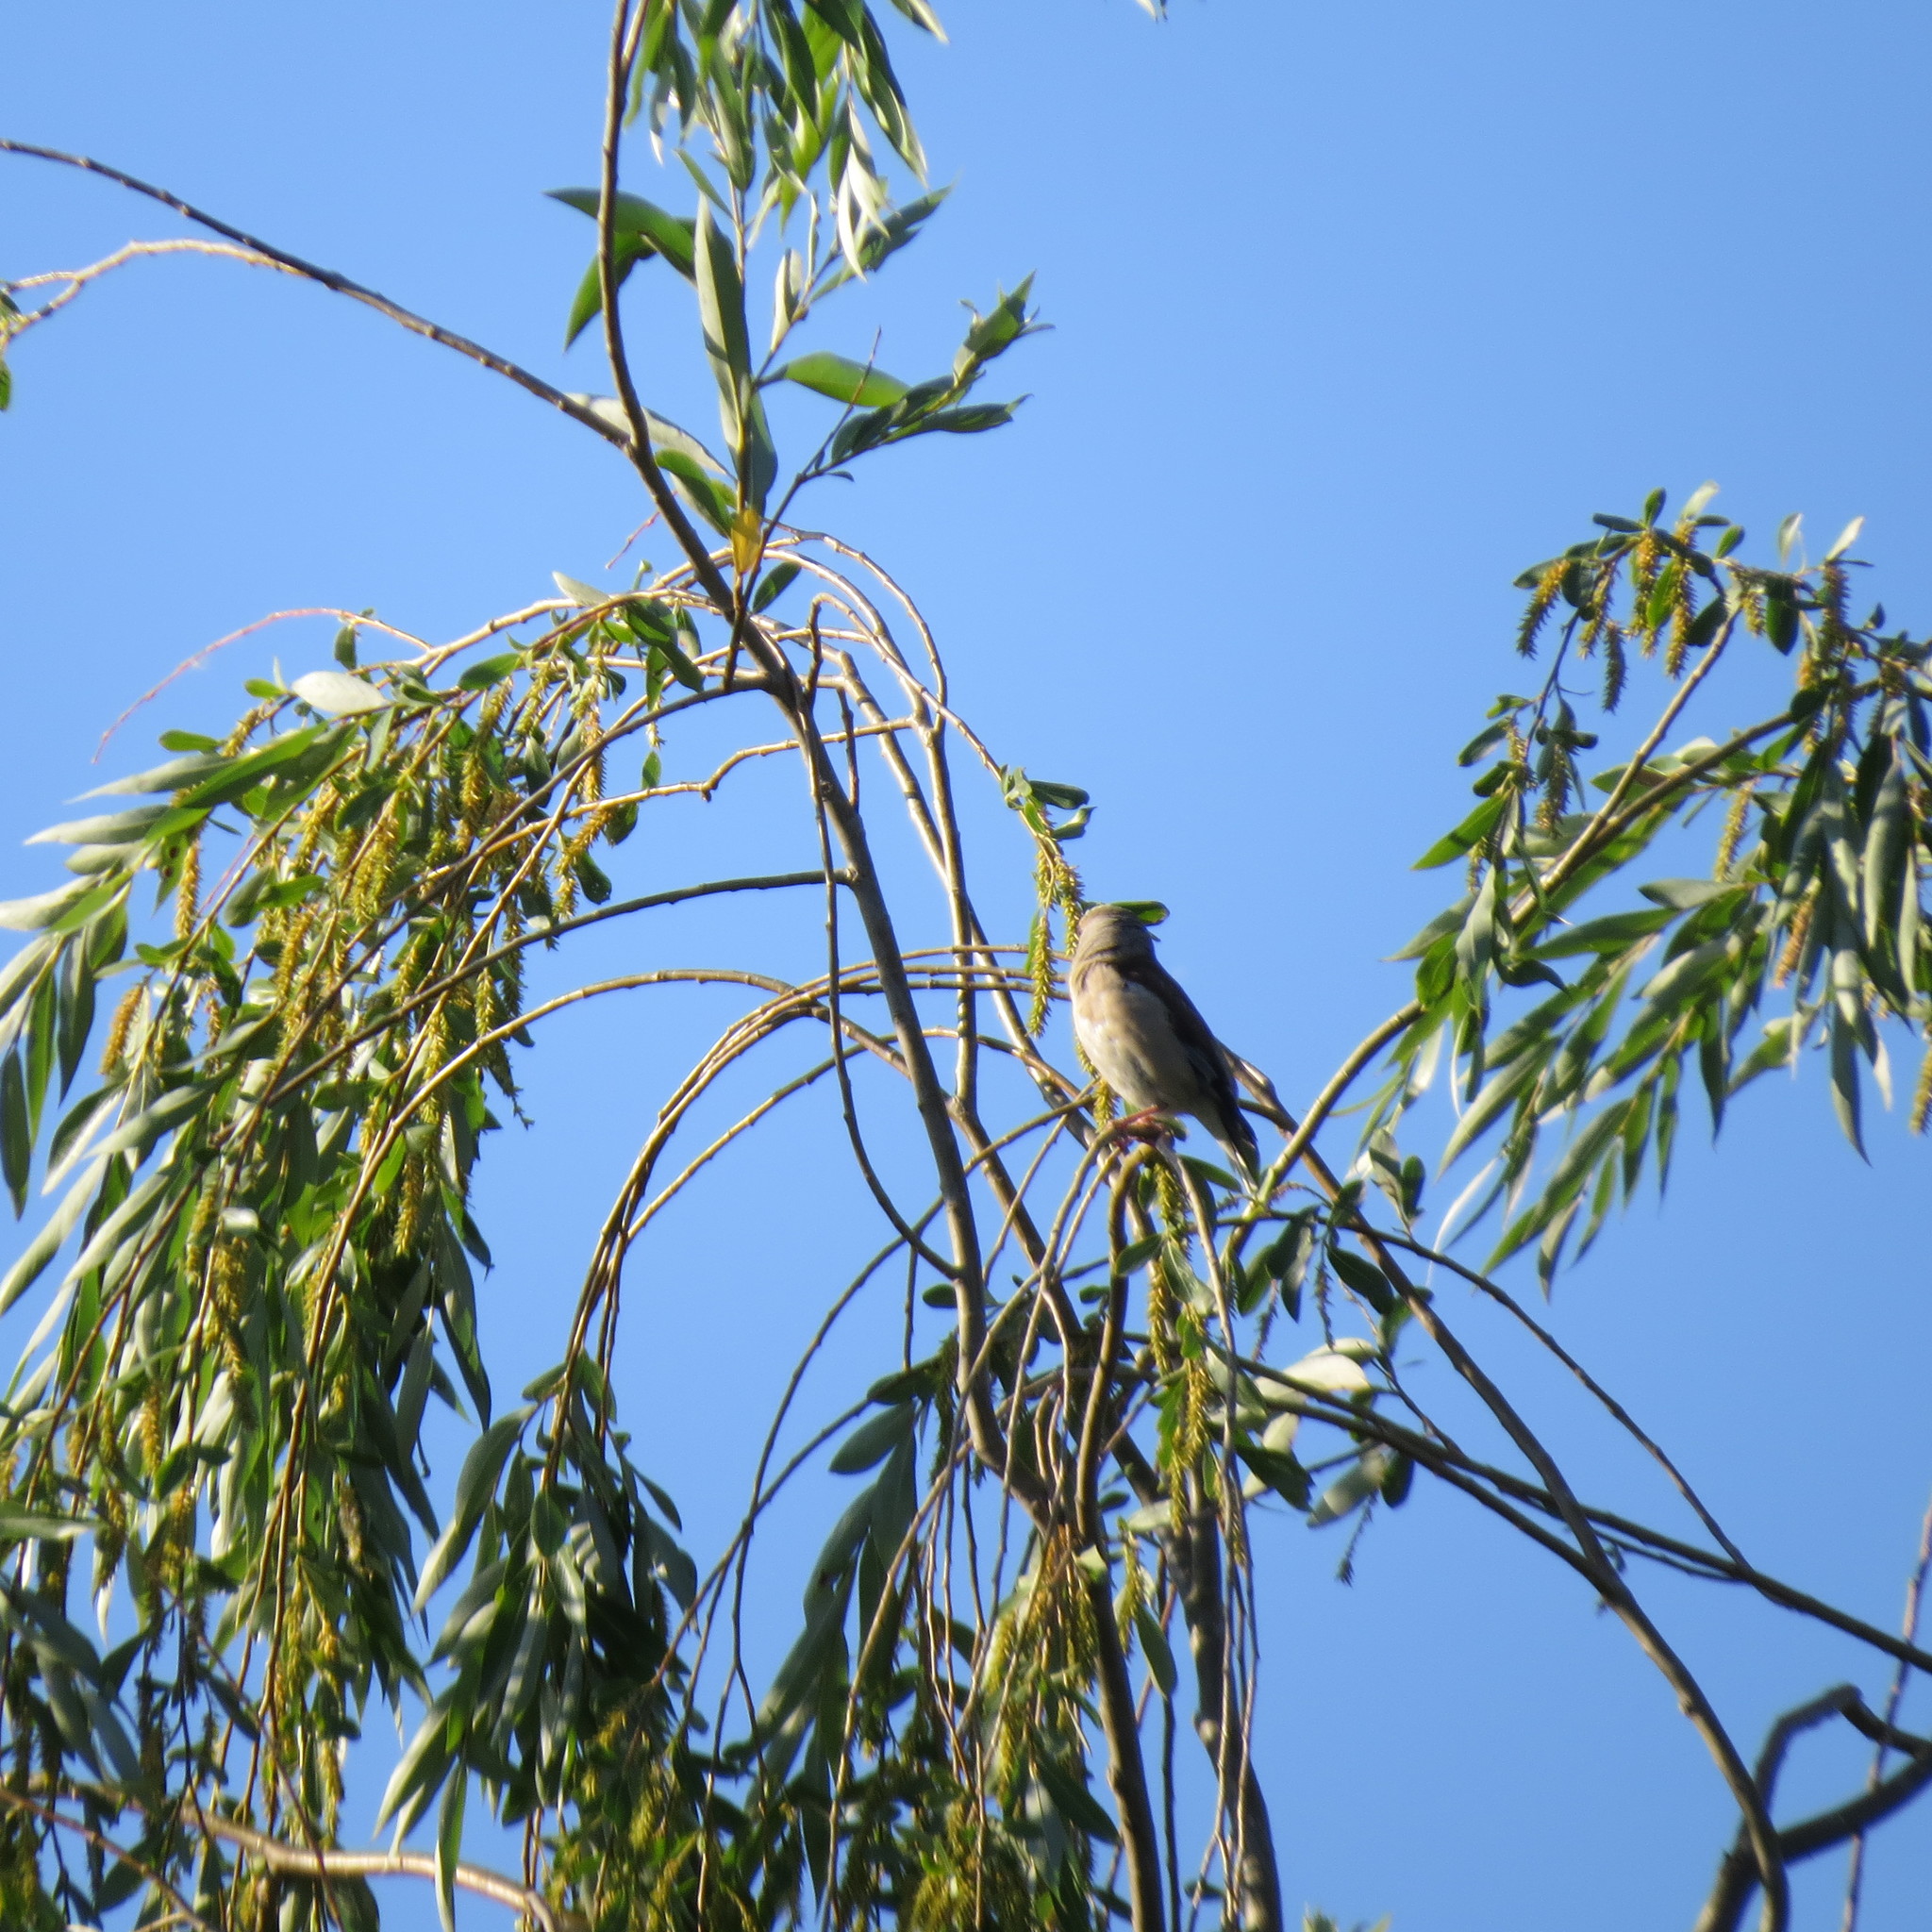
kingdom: Animalia
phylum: Chordata
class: Aves
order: Passeriformes
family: Fringillidae
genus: Coccothraustes
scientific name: Coccothraustes coccothraustes
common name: Hawfinch
